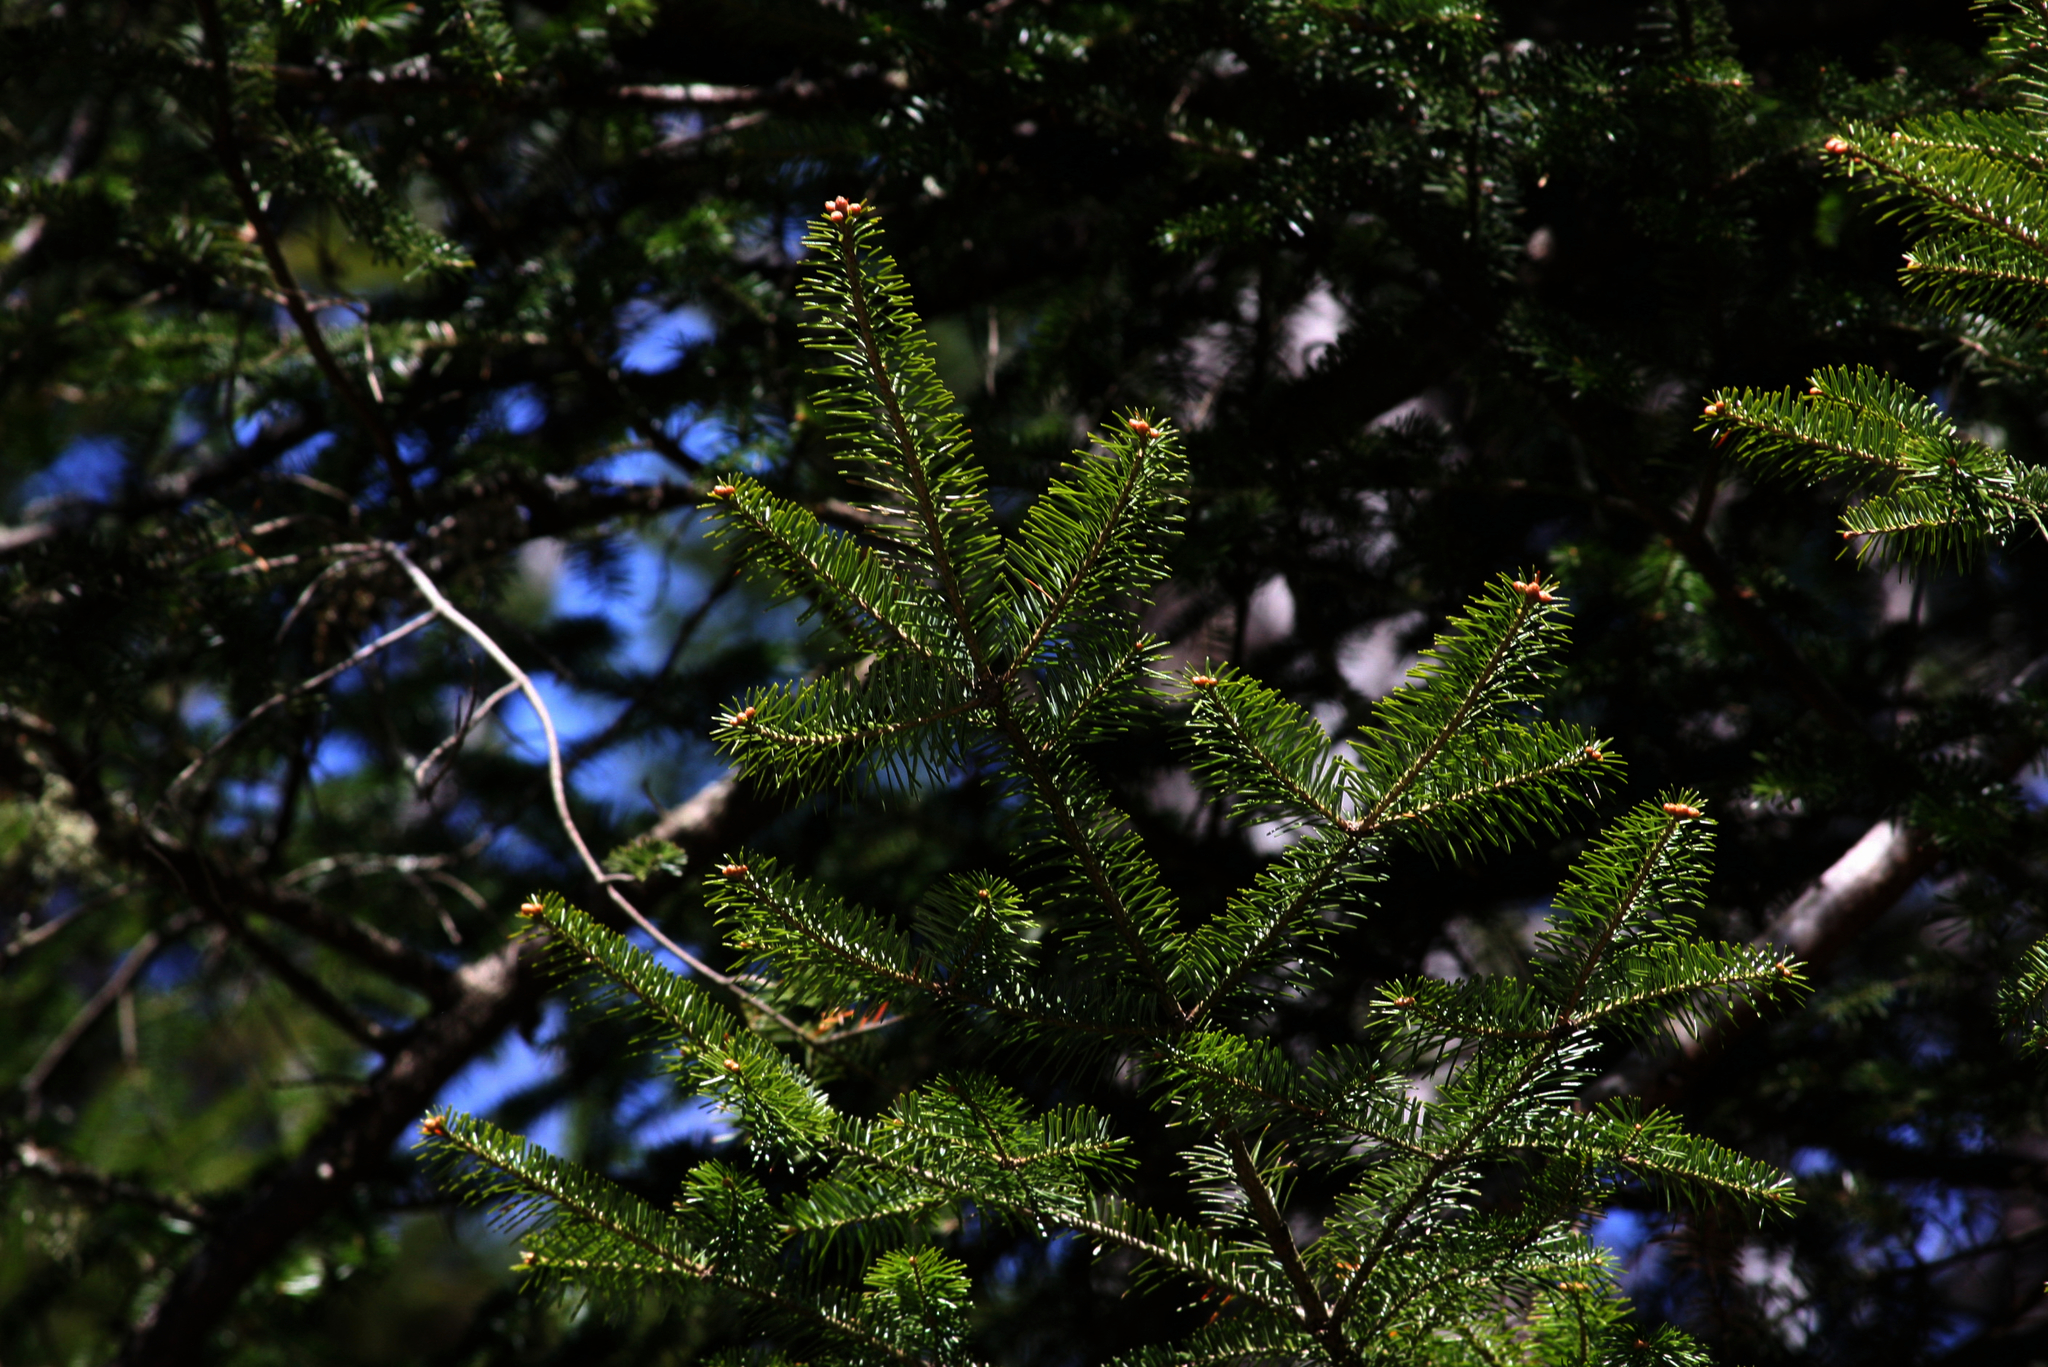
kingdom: Plantae
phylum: Tracheophyta
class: Pinopsida
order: Pinales
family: Pinaceae
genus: Abies
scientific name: Abies balsamea
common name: Balsam fir
